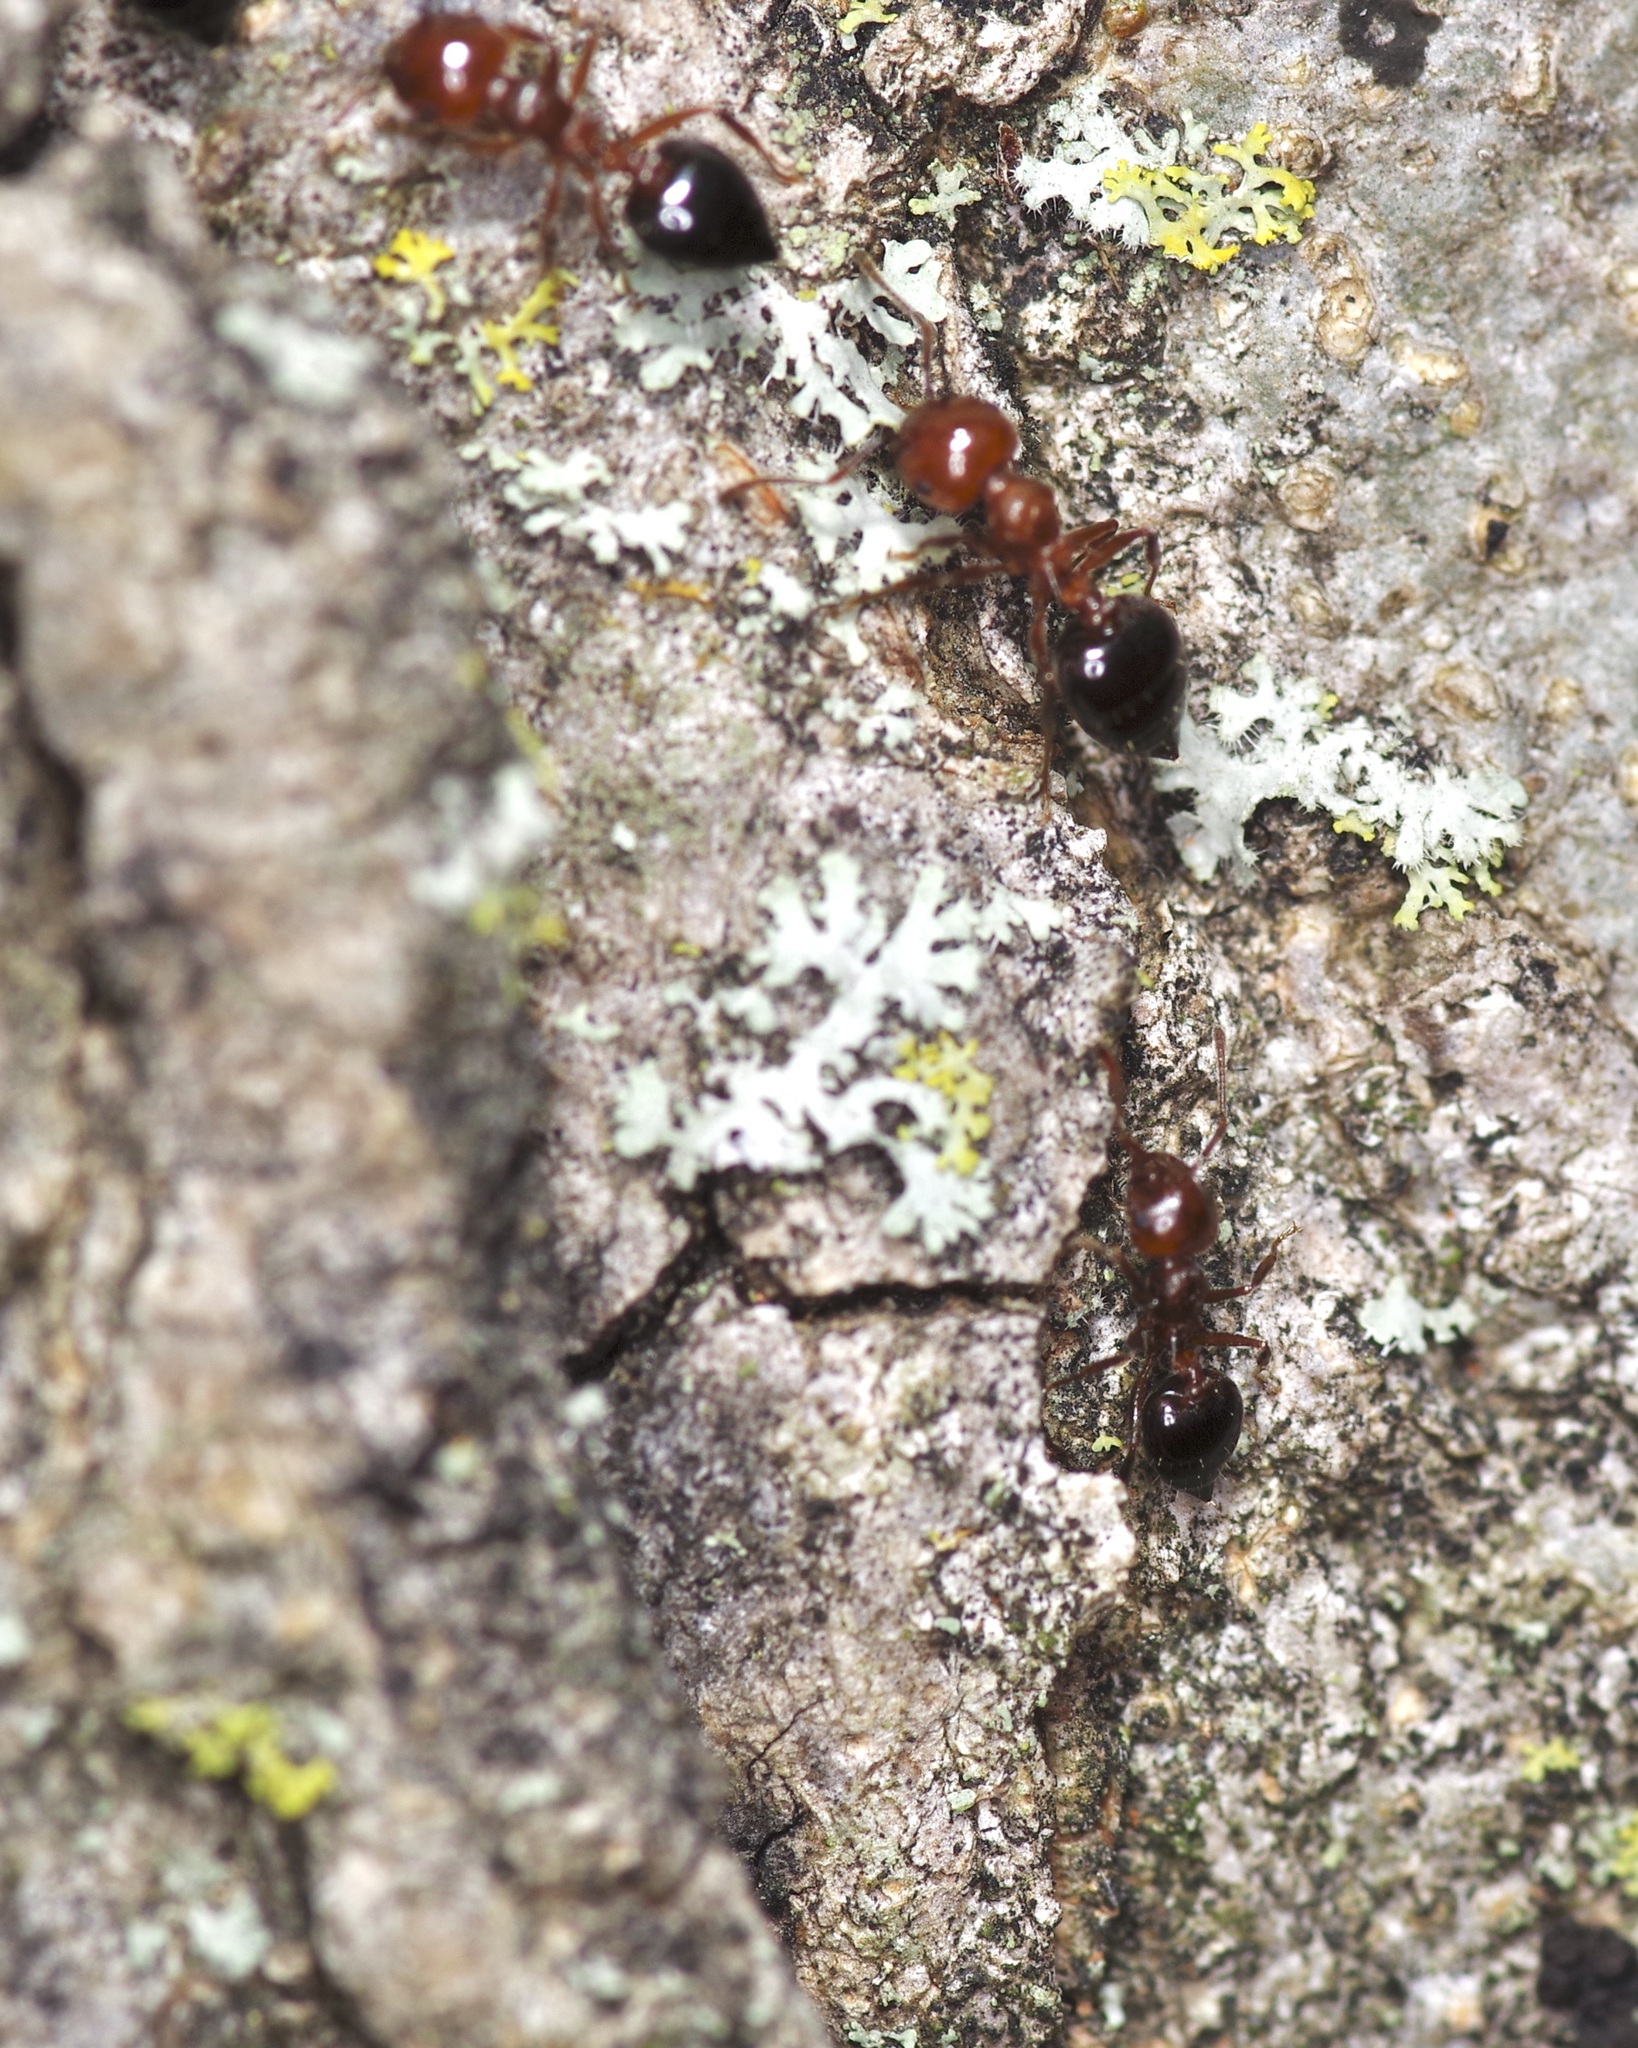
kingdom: Animalia
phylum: Arthropoda
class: Insecta
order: Hymenoptera
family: Formicidae
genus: Crematogaster
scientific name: Crematogaster laeviuscula
